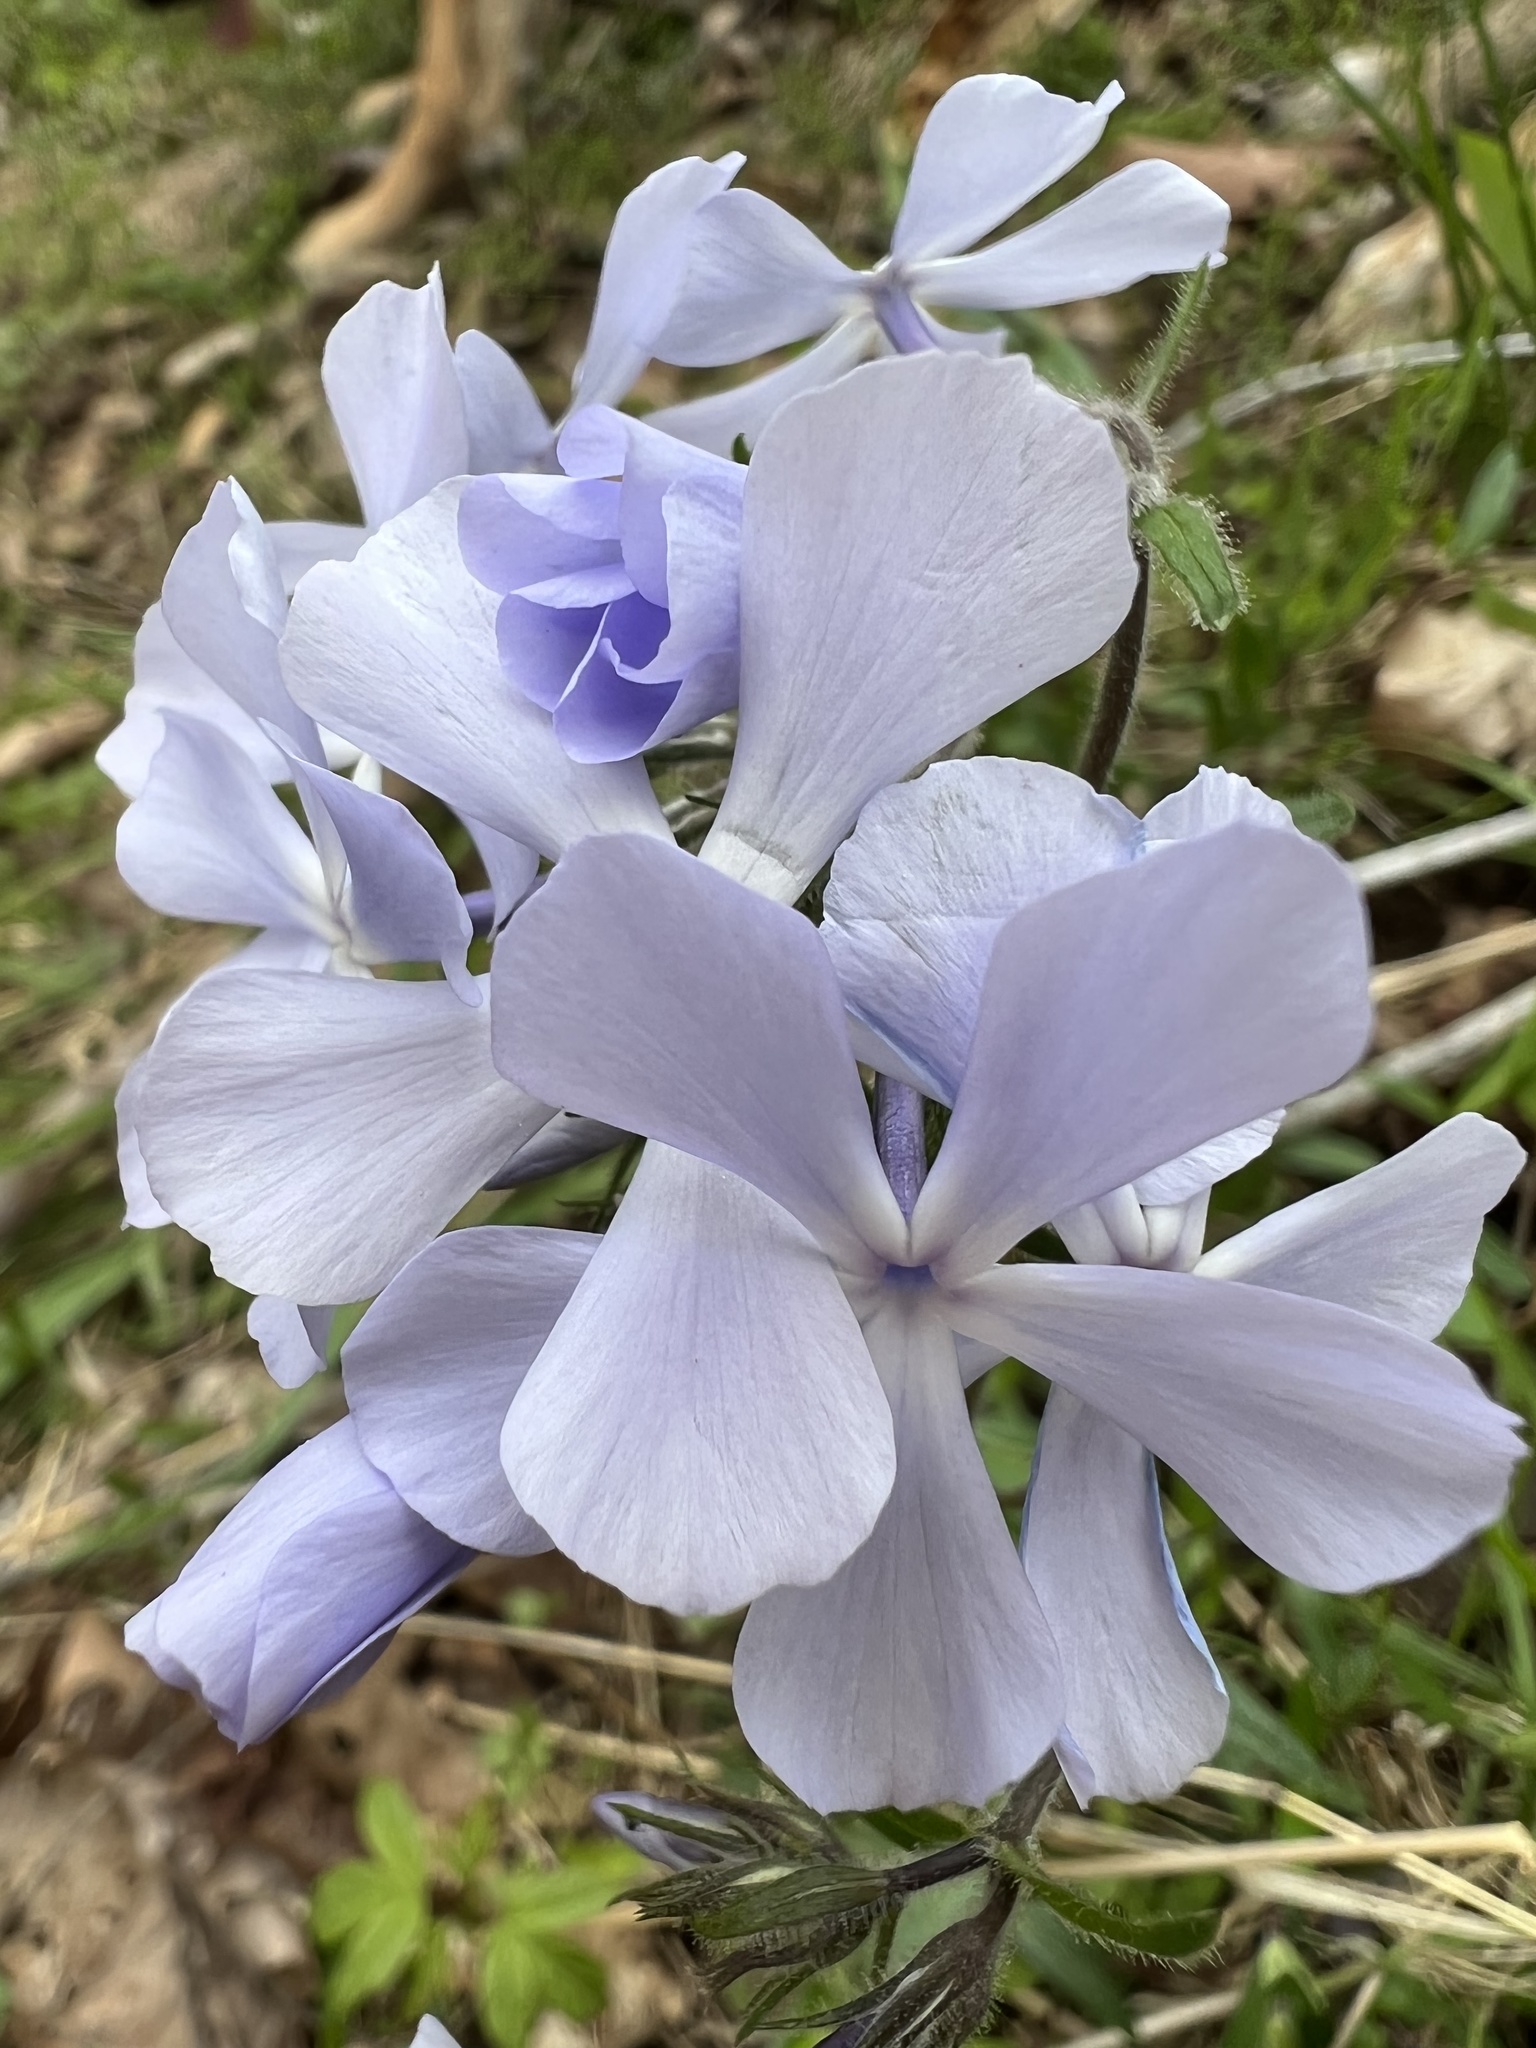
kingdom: Plantae
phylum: Tracheophyta
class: Magnoliopsida
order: Ericales
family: Polemoniaceae
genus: Phlox
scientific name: Phlox divaricata
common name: Blue phlox
